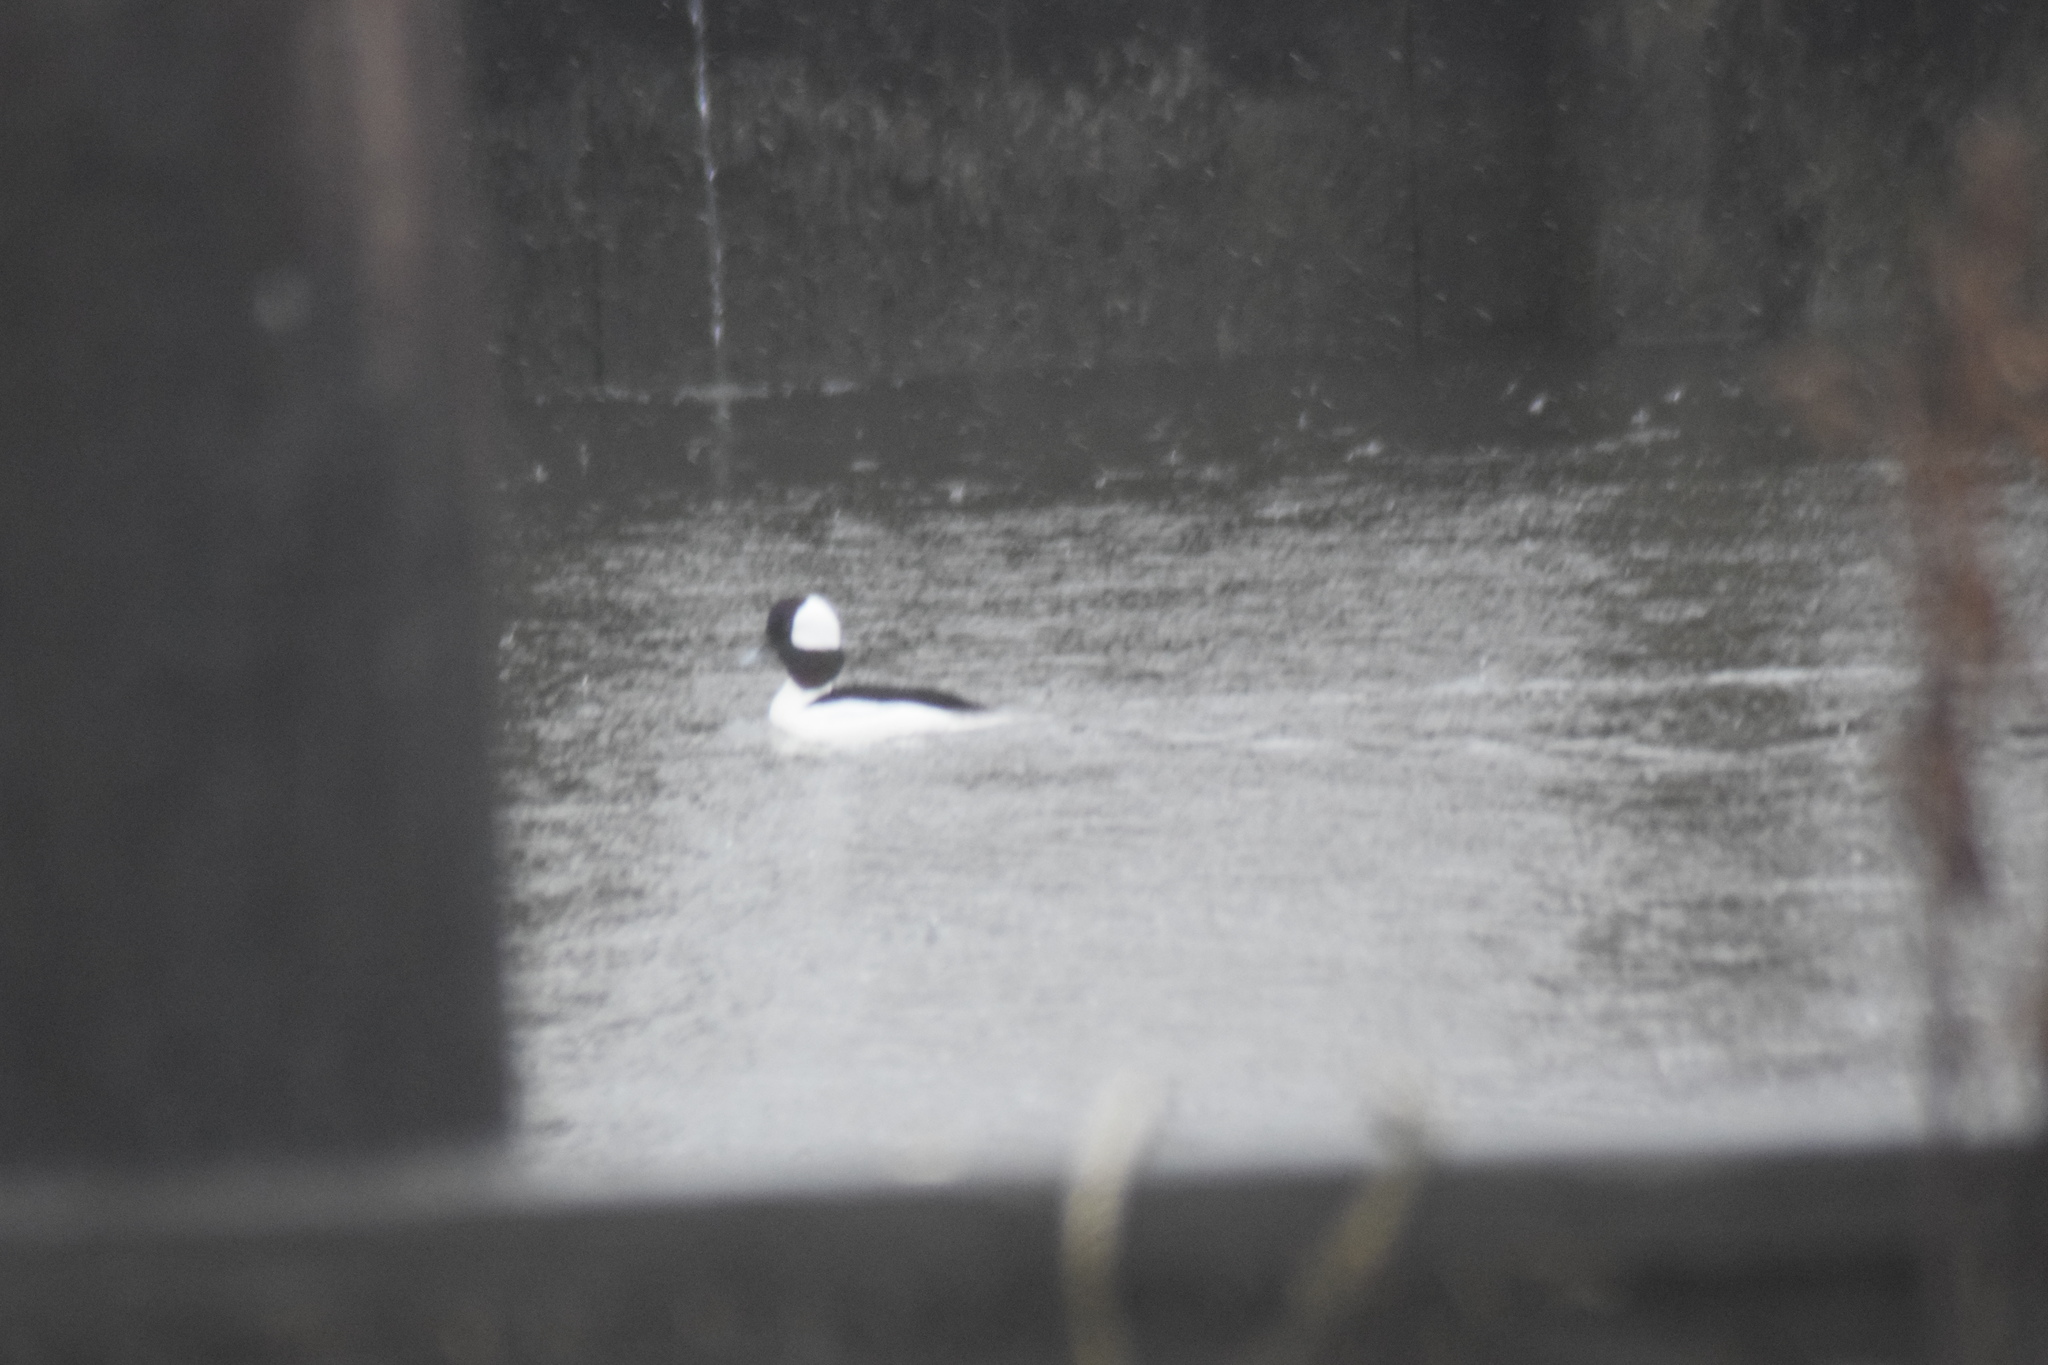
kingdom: Animalia
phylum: Chordata
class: Aves
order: Anseriformes
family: Anatidae
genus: Bucephala
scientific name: Bucephala albeola
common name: Bufflehead
